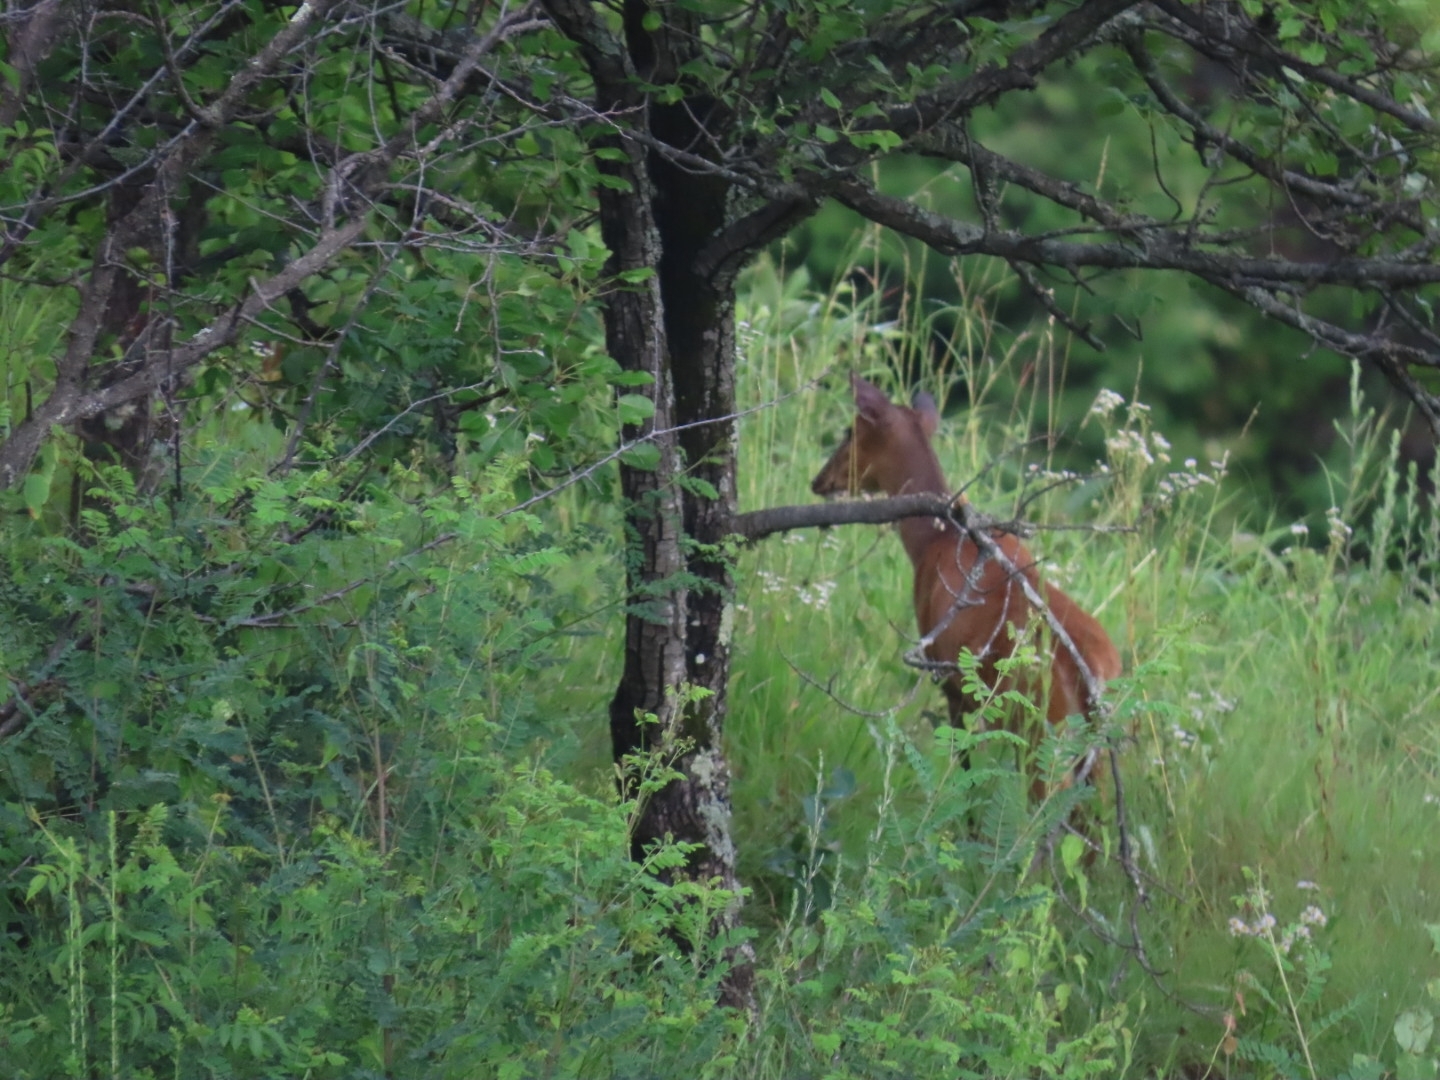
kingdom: Animalia
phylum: Chordata
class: Mammalia
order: Artiodactyla
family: Cervidae
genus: Muntiacus
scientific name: Muntiacus muntjak
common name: Indian muntjac
